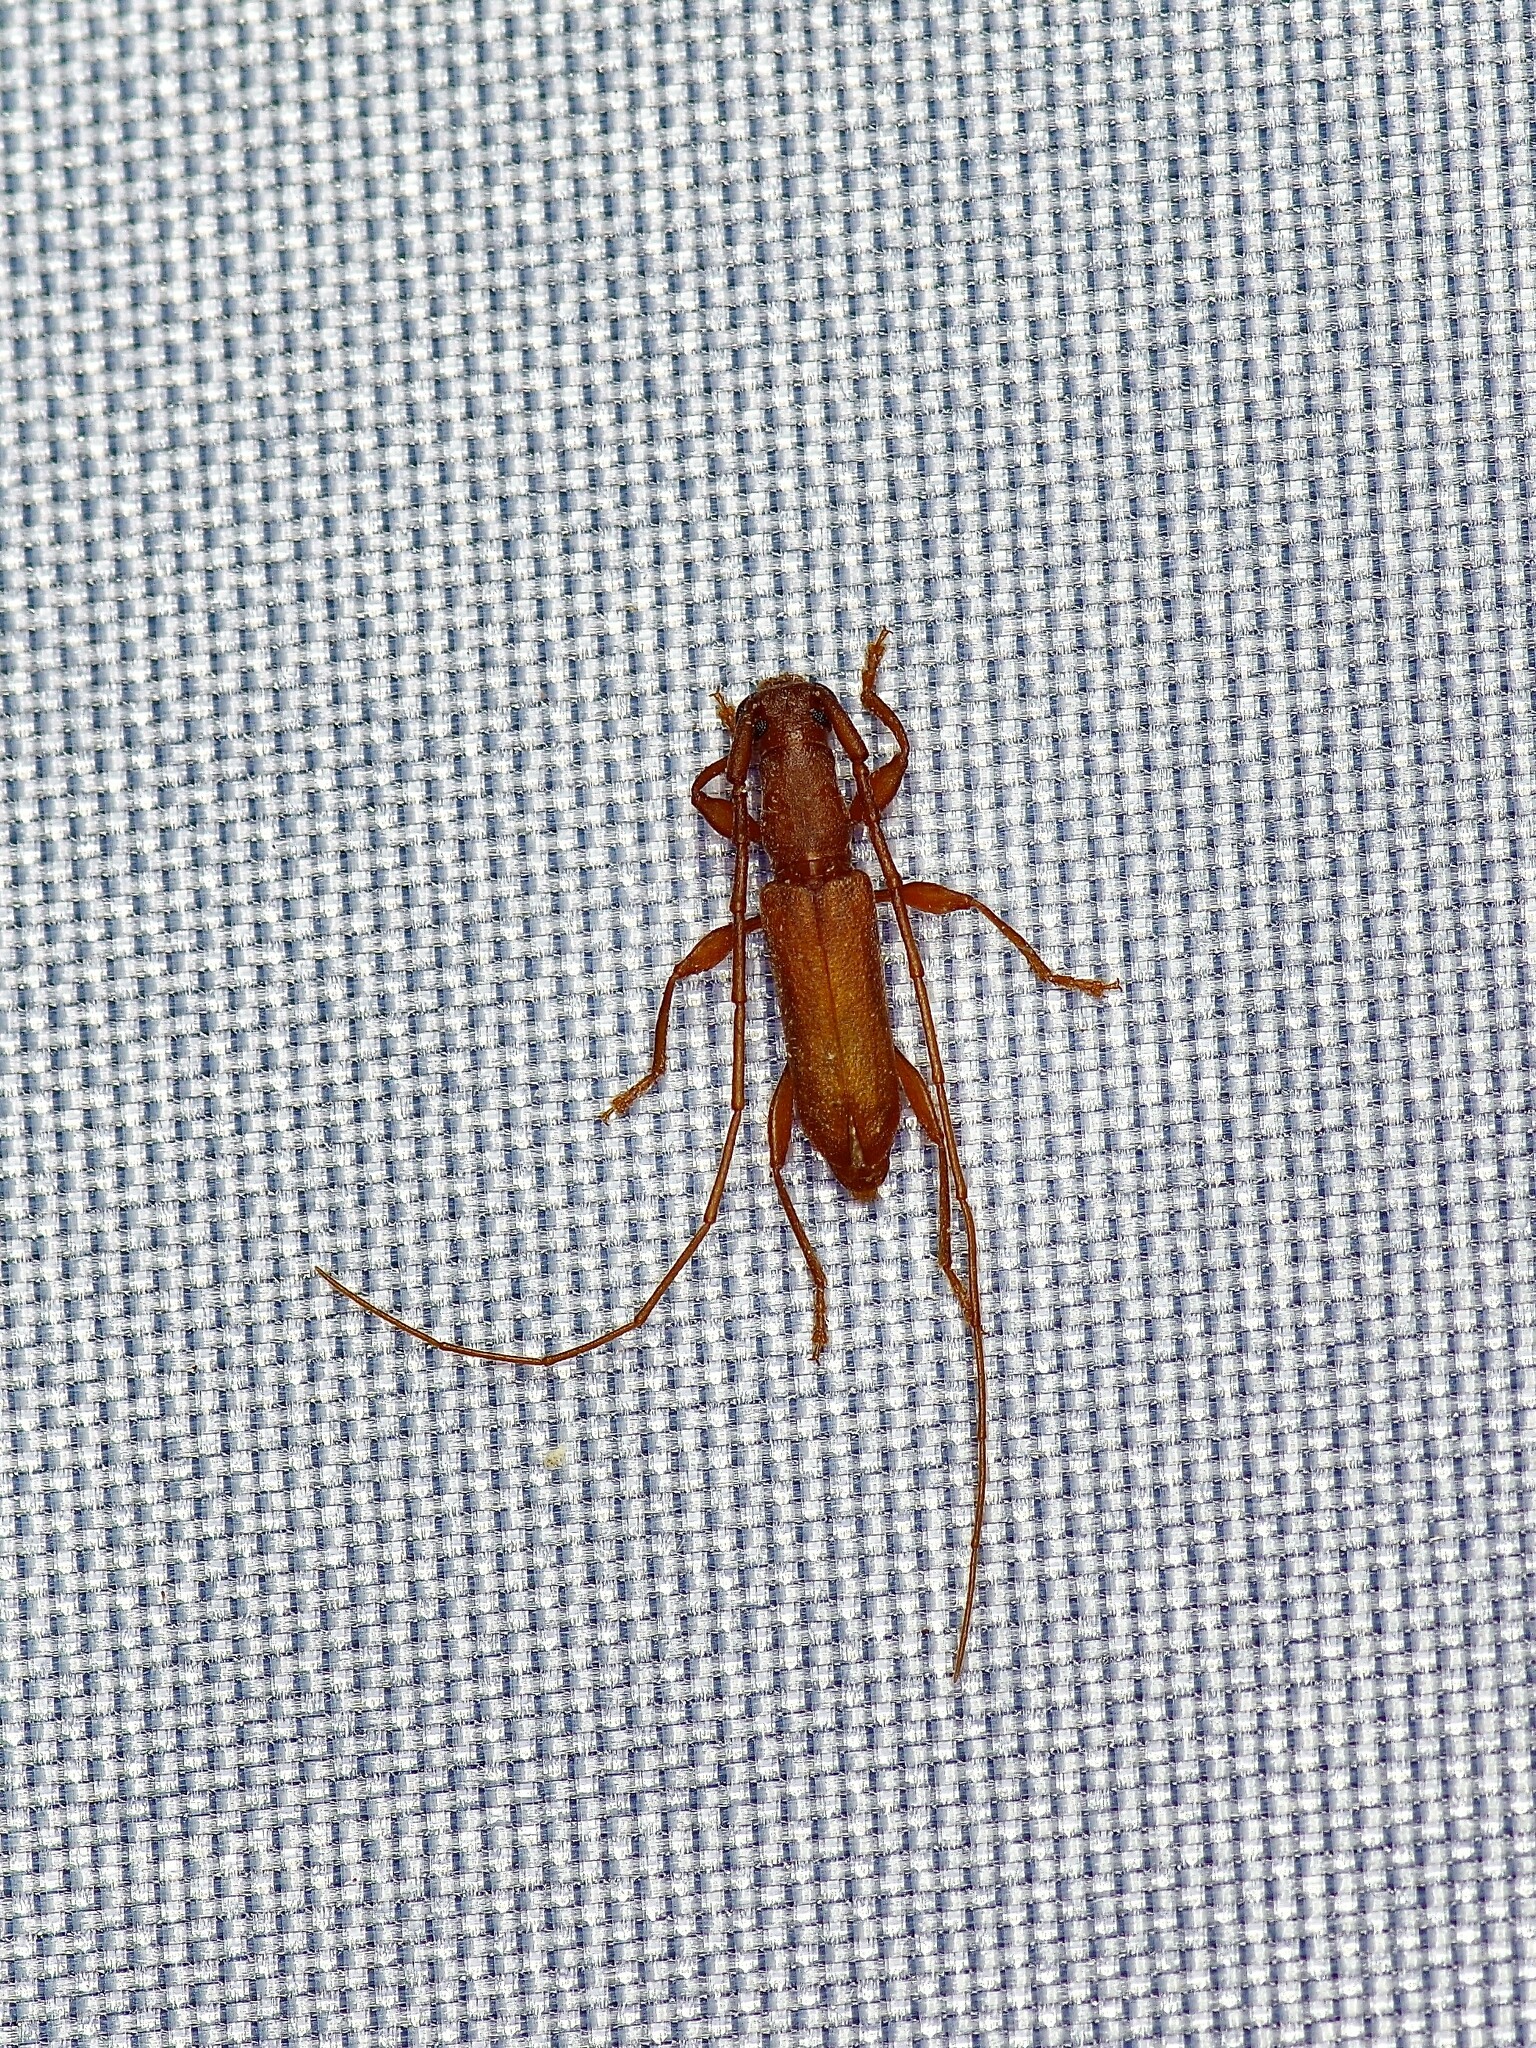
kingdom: Animalia
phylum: Arthropoda
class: Insecta
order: Coleoptera
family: Cerambycidae
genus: Hypexilis
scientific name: Hypexilis pallida
